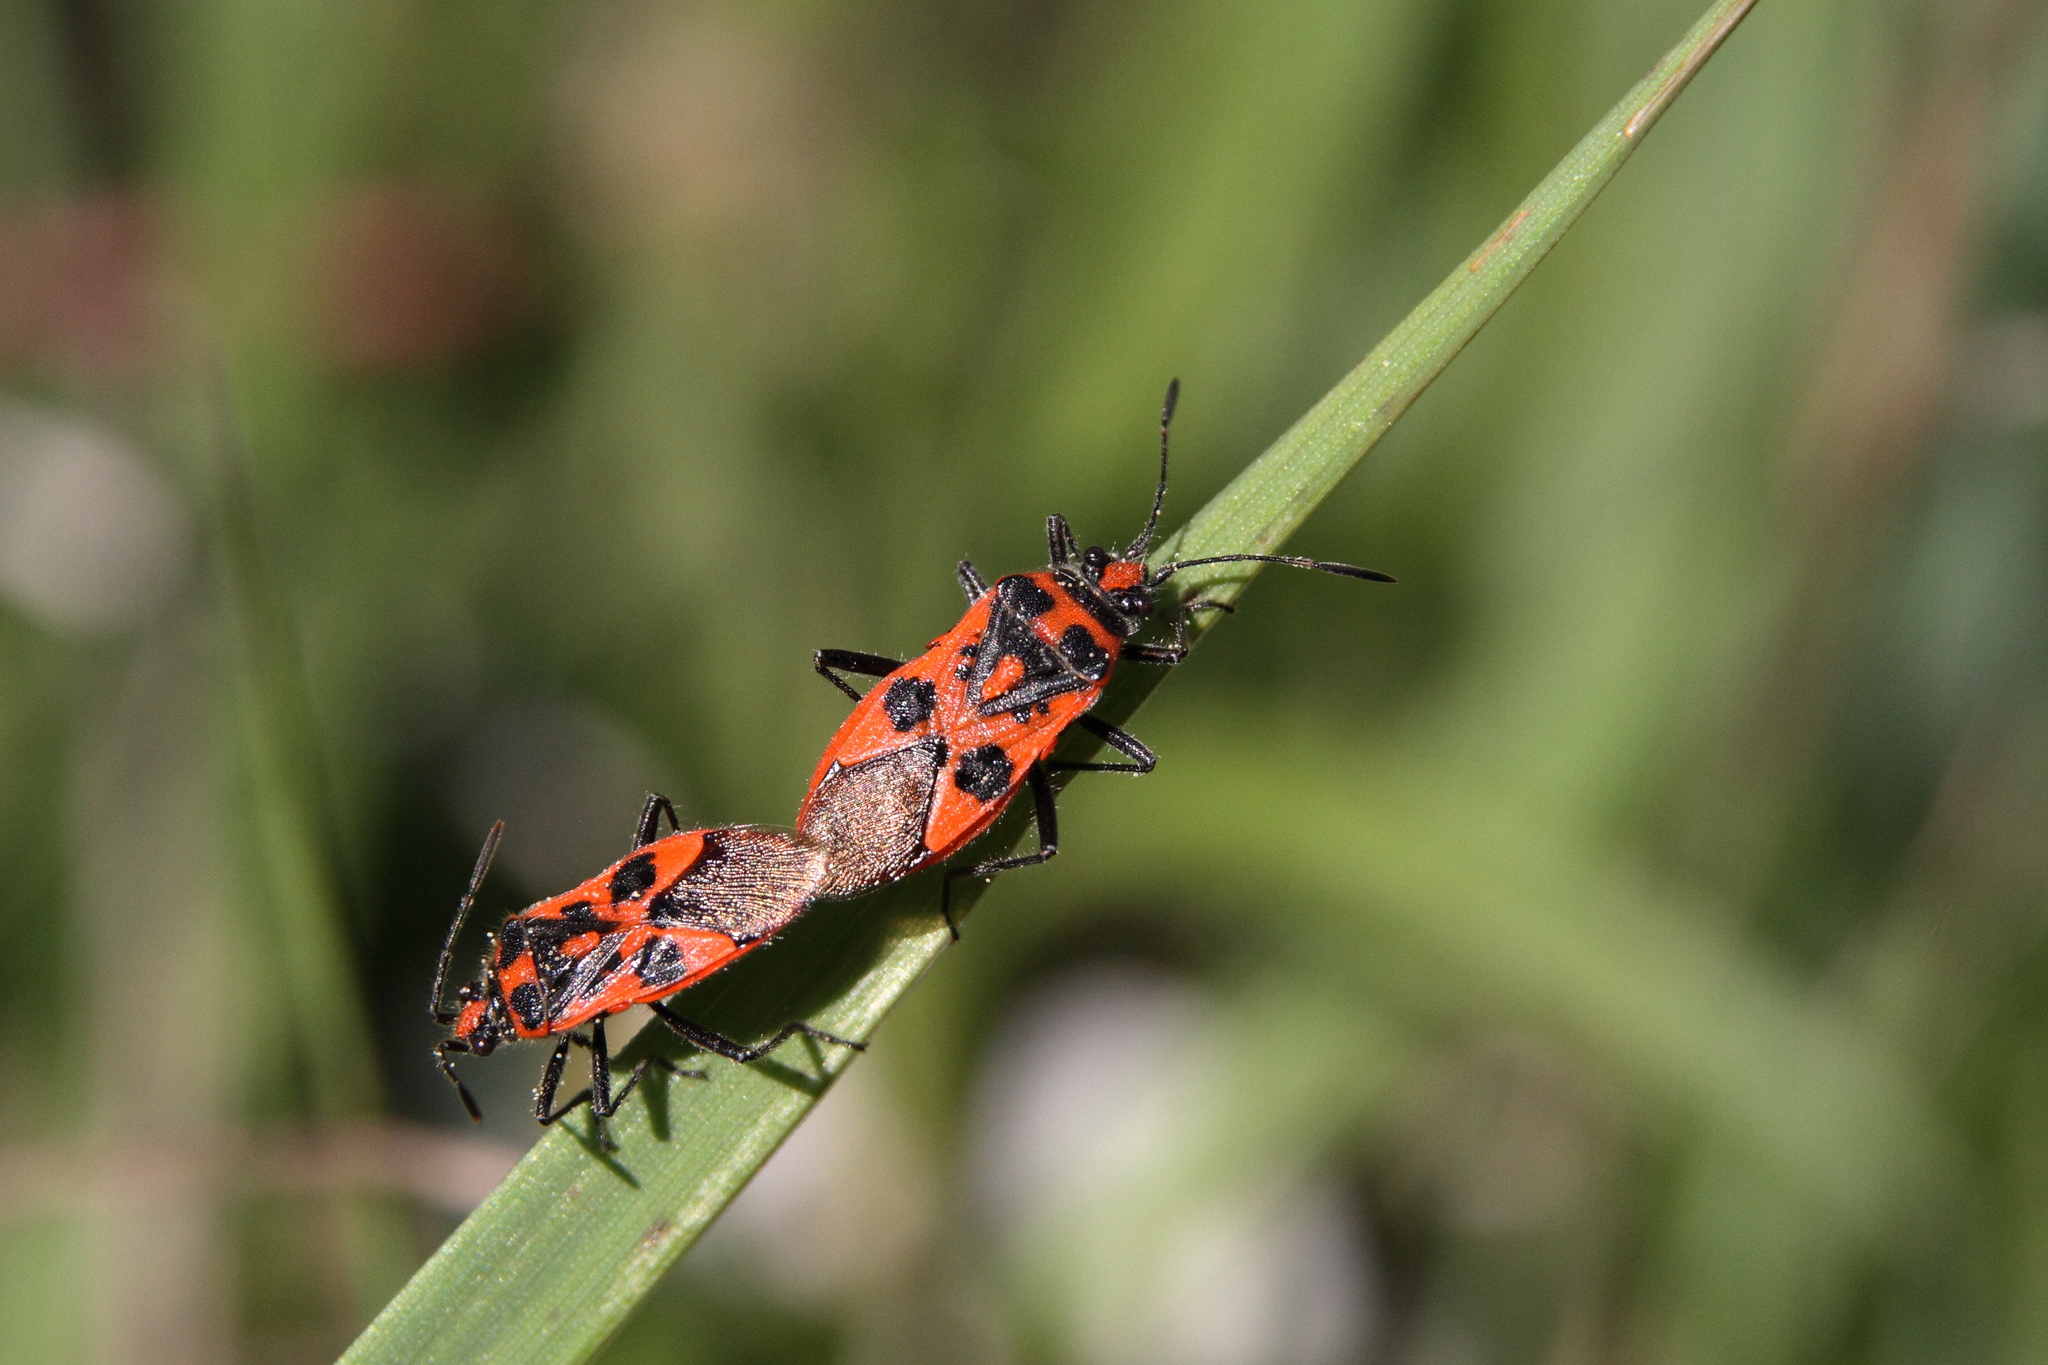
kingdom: Animalia
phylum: Arthropoda
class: Insecta
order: Hemiptera
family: Rhopalidae
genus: Corizus
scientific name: Corizus hyoscyami
